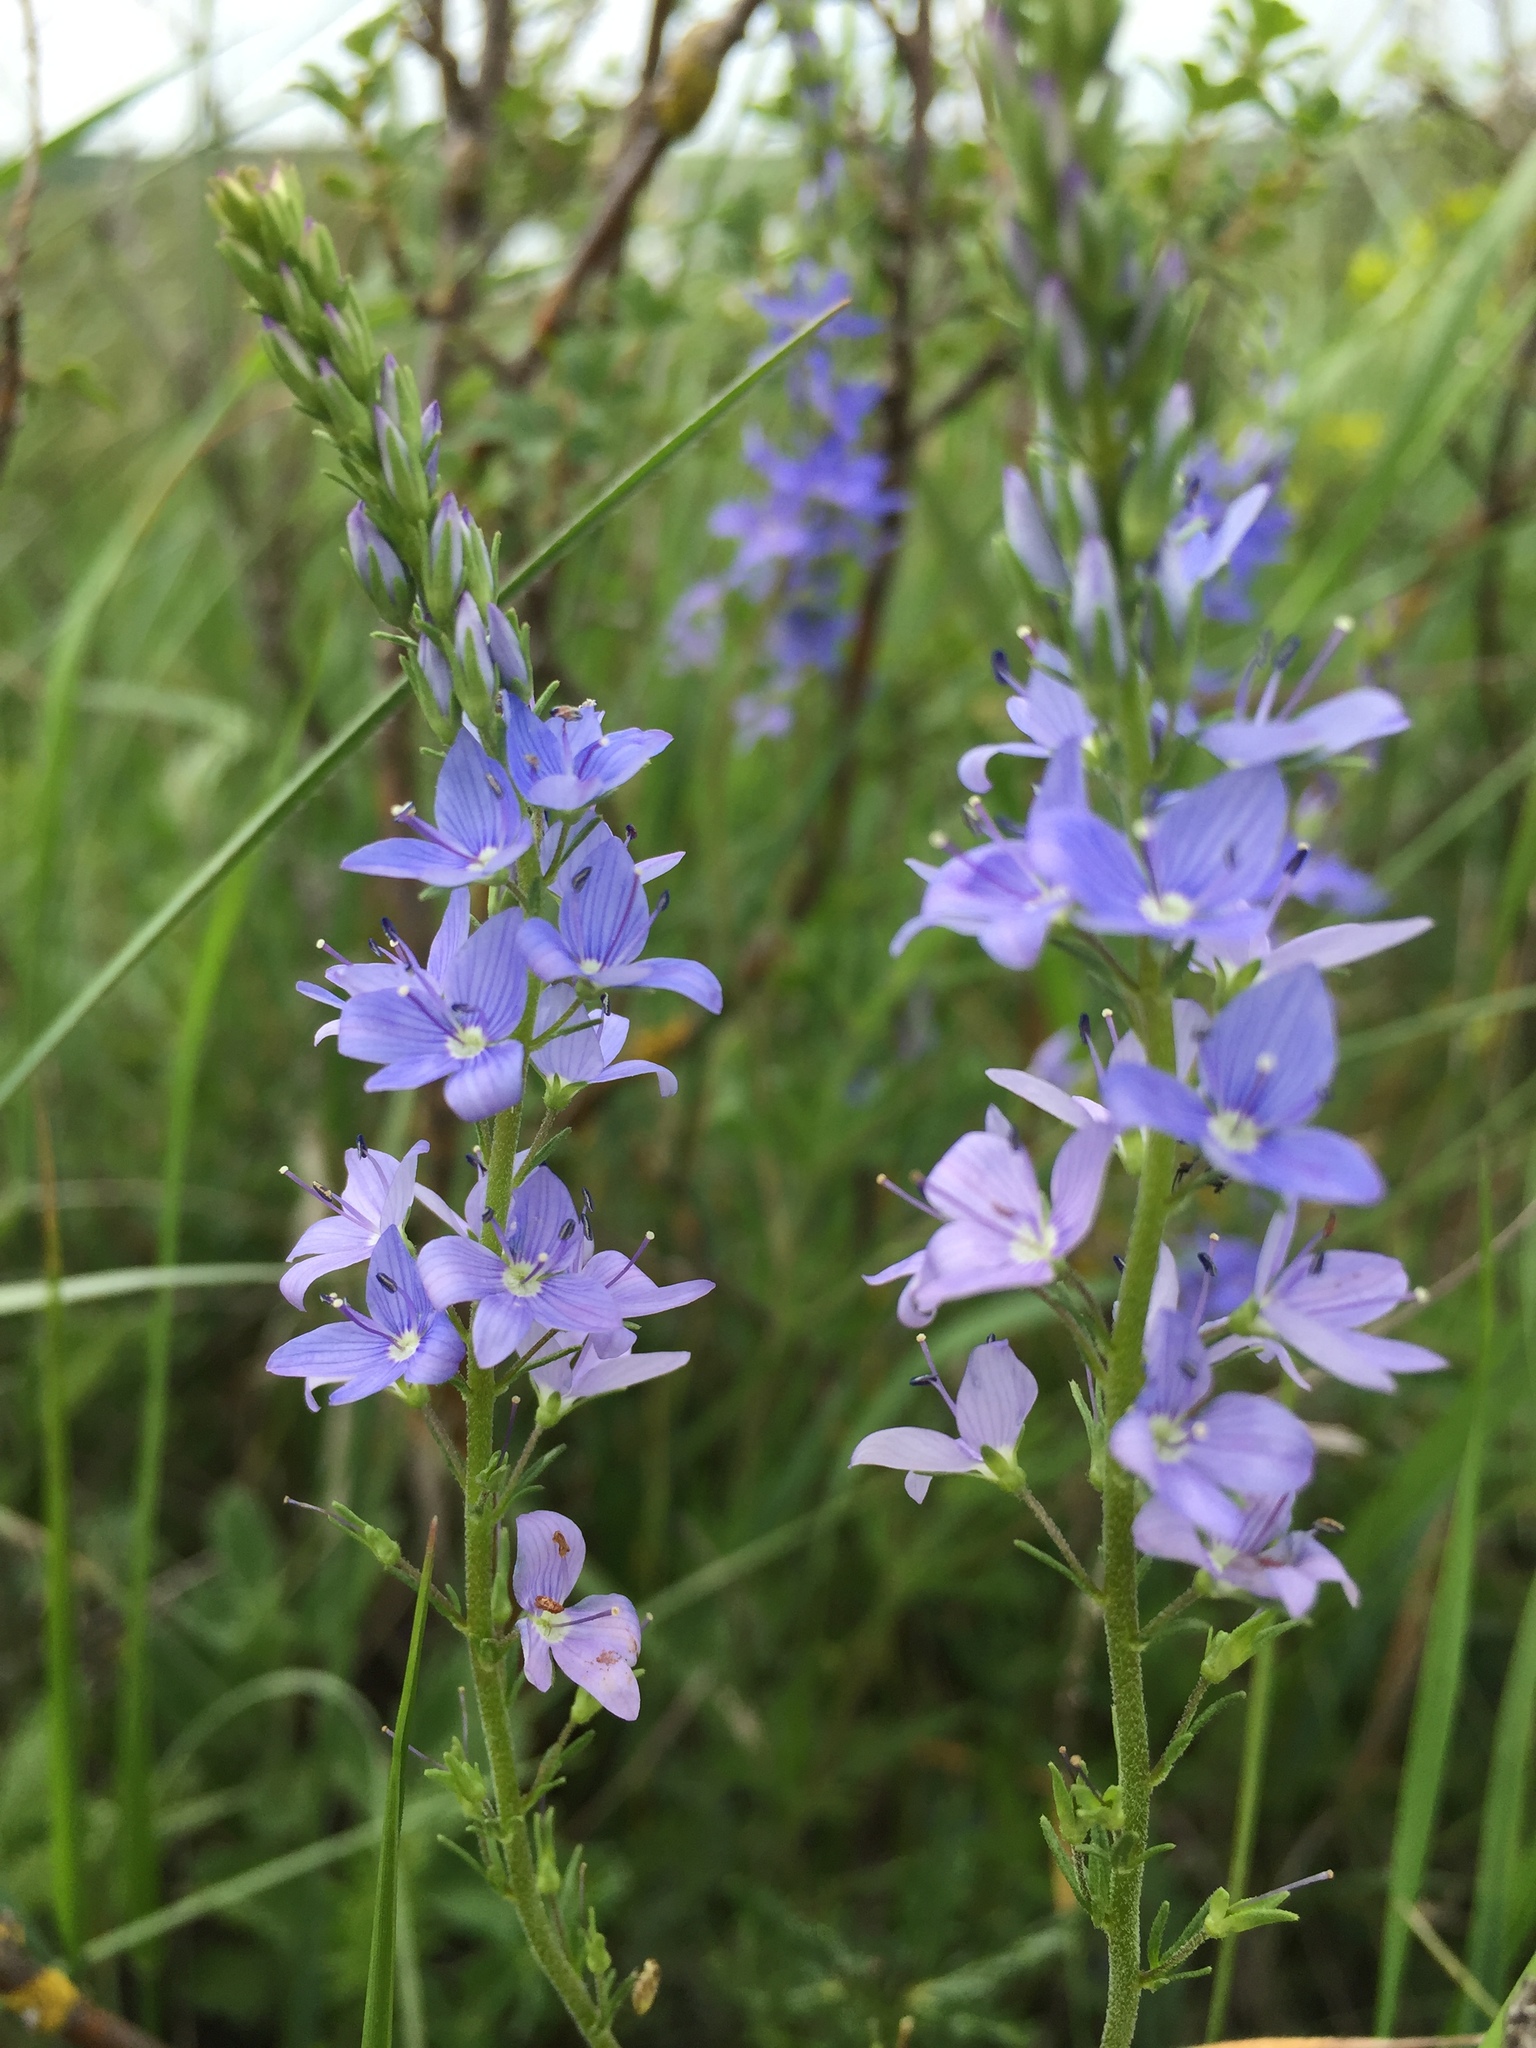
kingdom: Plantae
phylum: Tracheophyta
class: Magnoliopsida
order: Lamiales
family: Plantaginaceae
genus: Veronica
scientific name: Veronica austriaca
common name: Large speedwell
